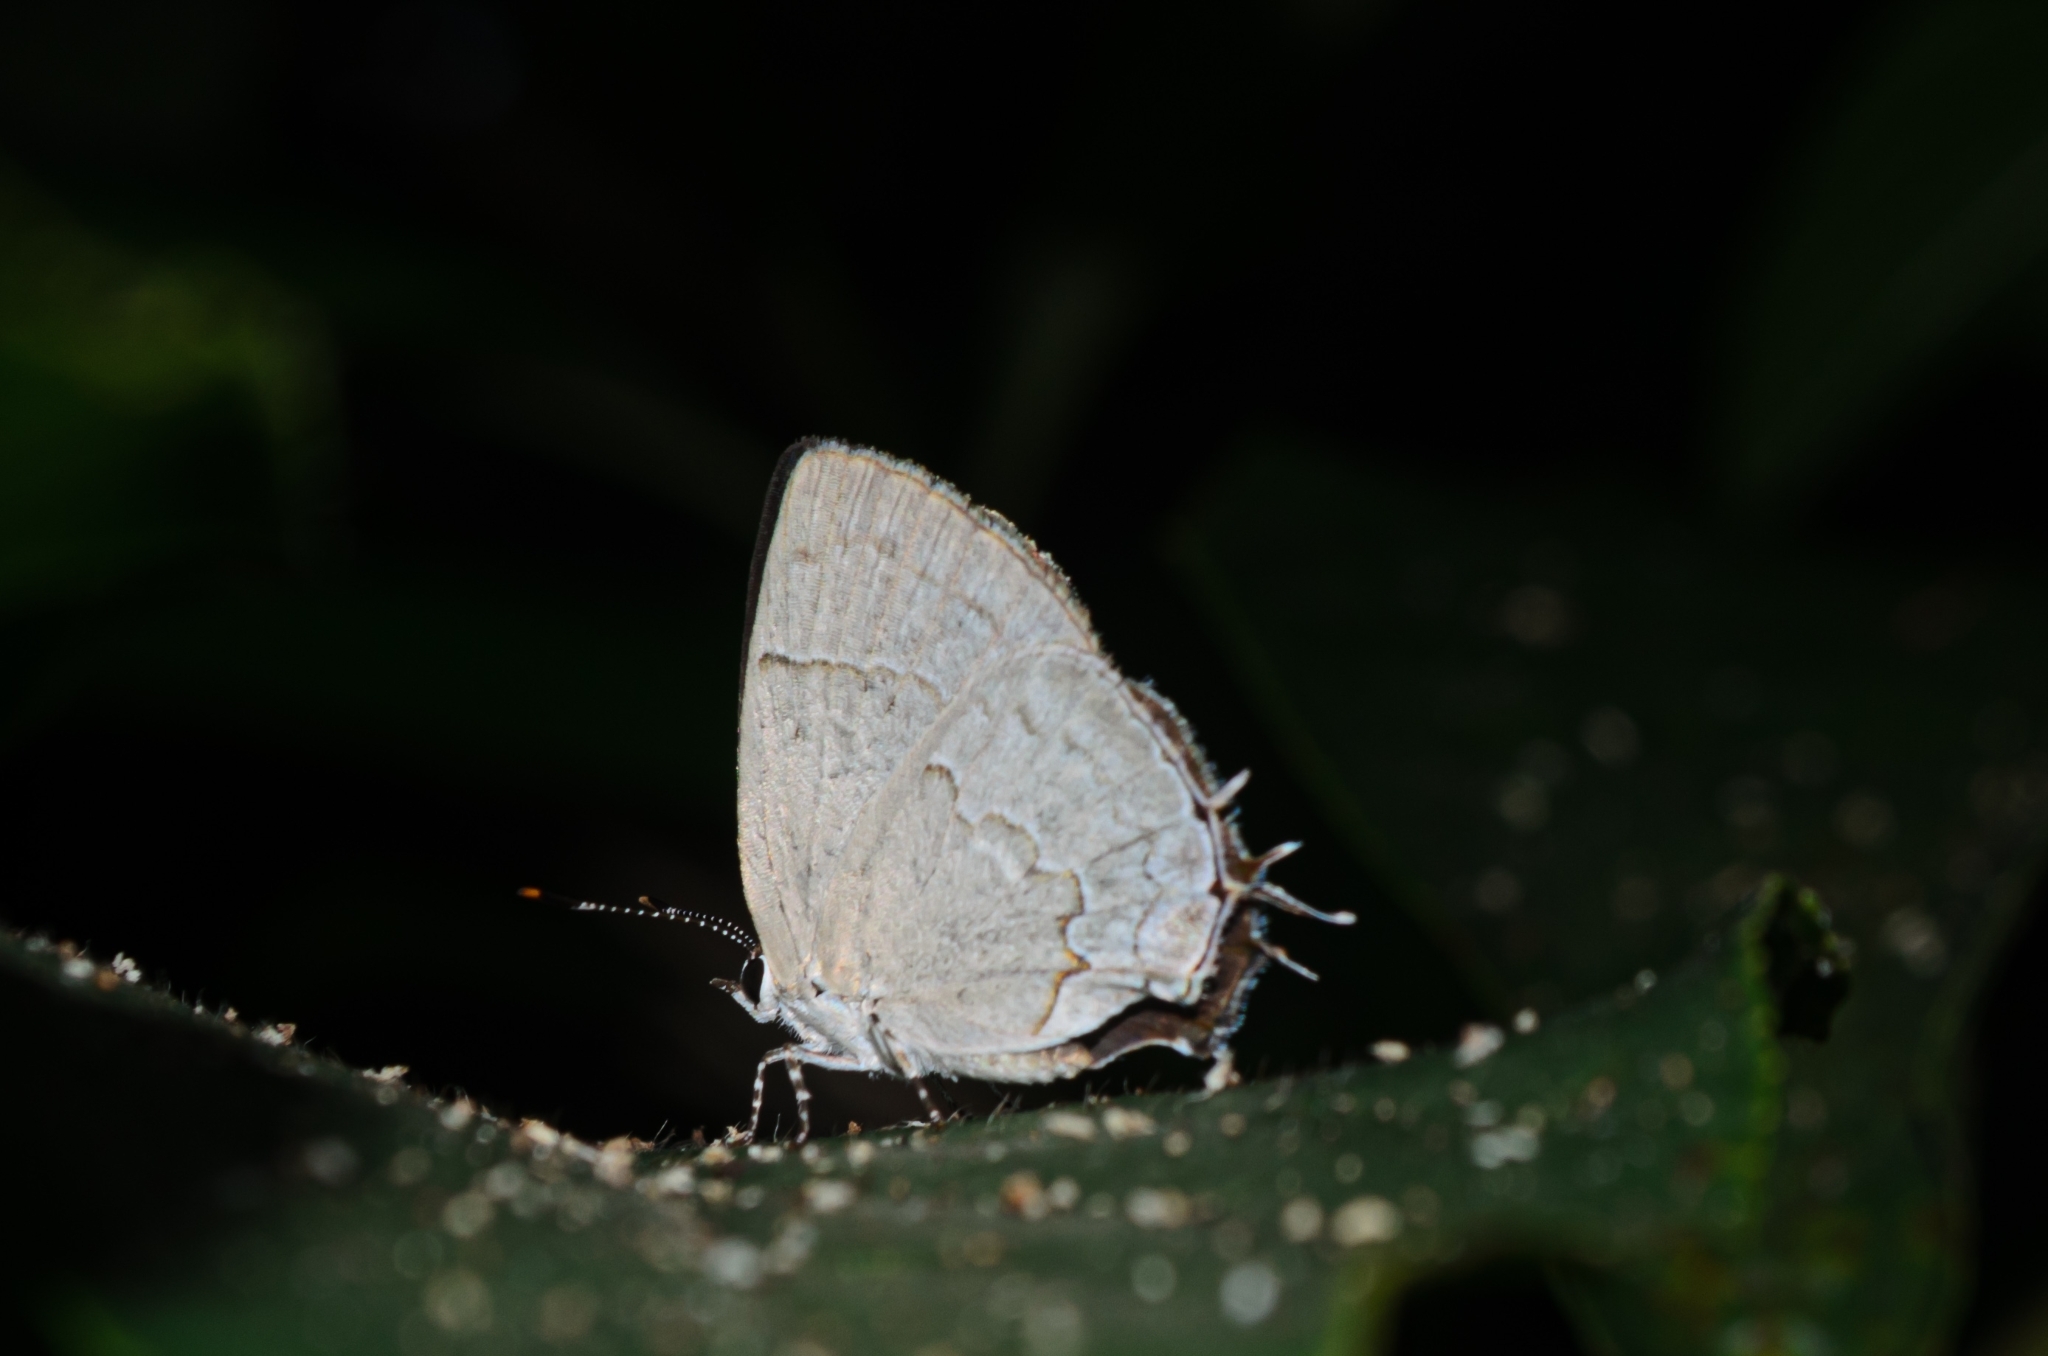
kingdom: Animalia
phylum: Arthropoda
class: Insecta
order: Lepidoptera
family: Lycaenidae
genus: Symbiopsis
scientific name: Symbiopsis lenitas
